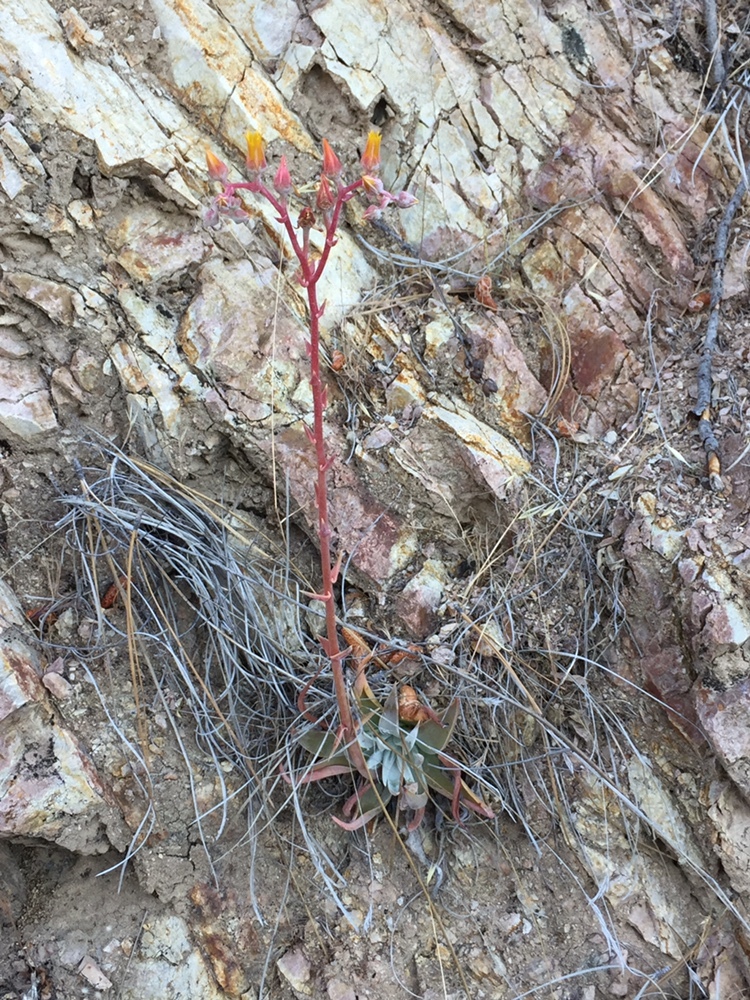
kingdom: Plantae
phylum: Tracheophyta
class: Magnoliopsida
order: Saxifragales
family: Crassulaceae
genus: Dudleya
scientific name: Dudleya lanceolata
